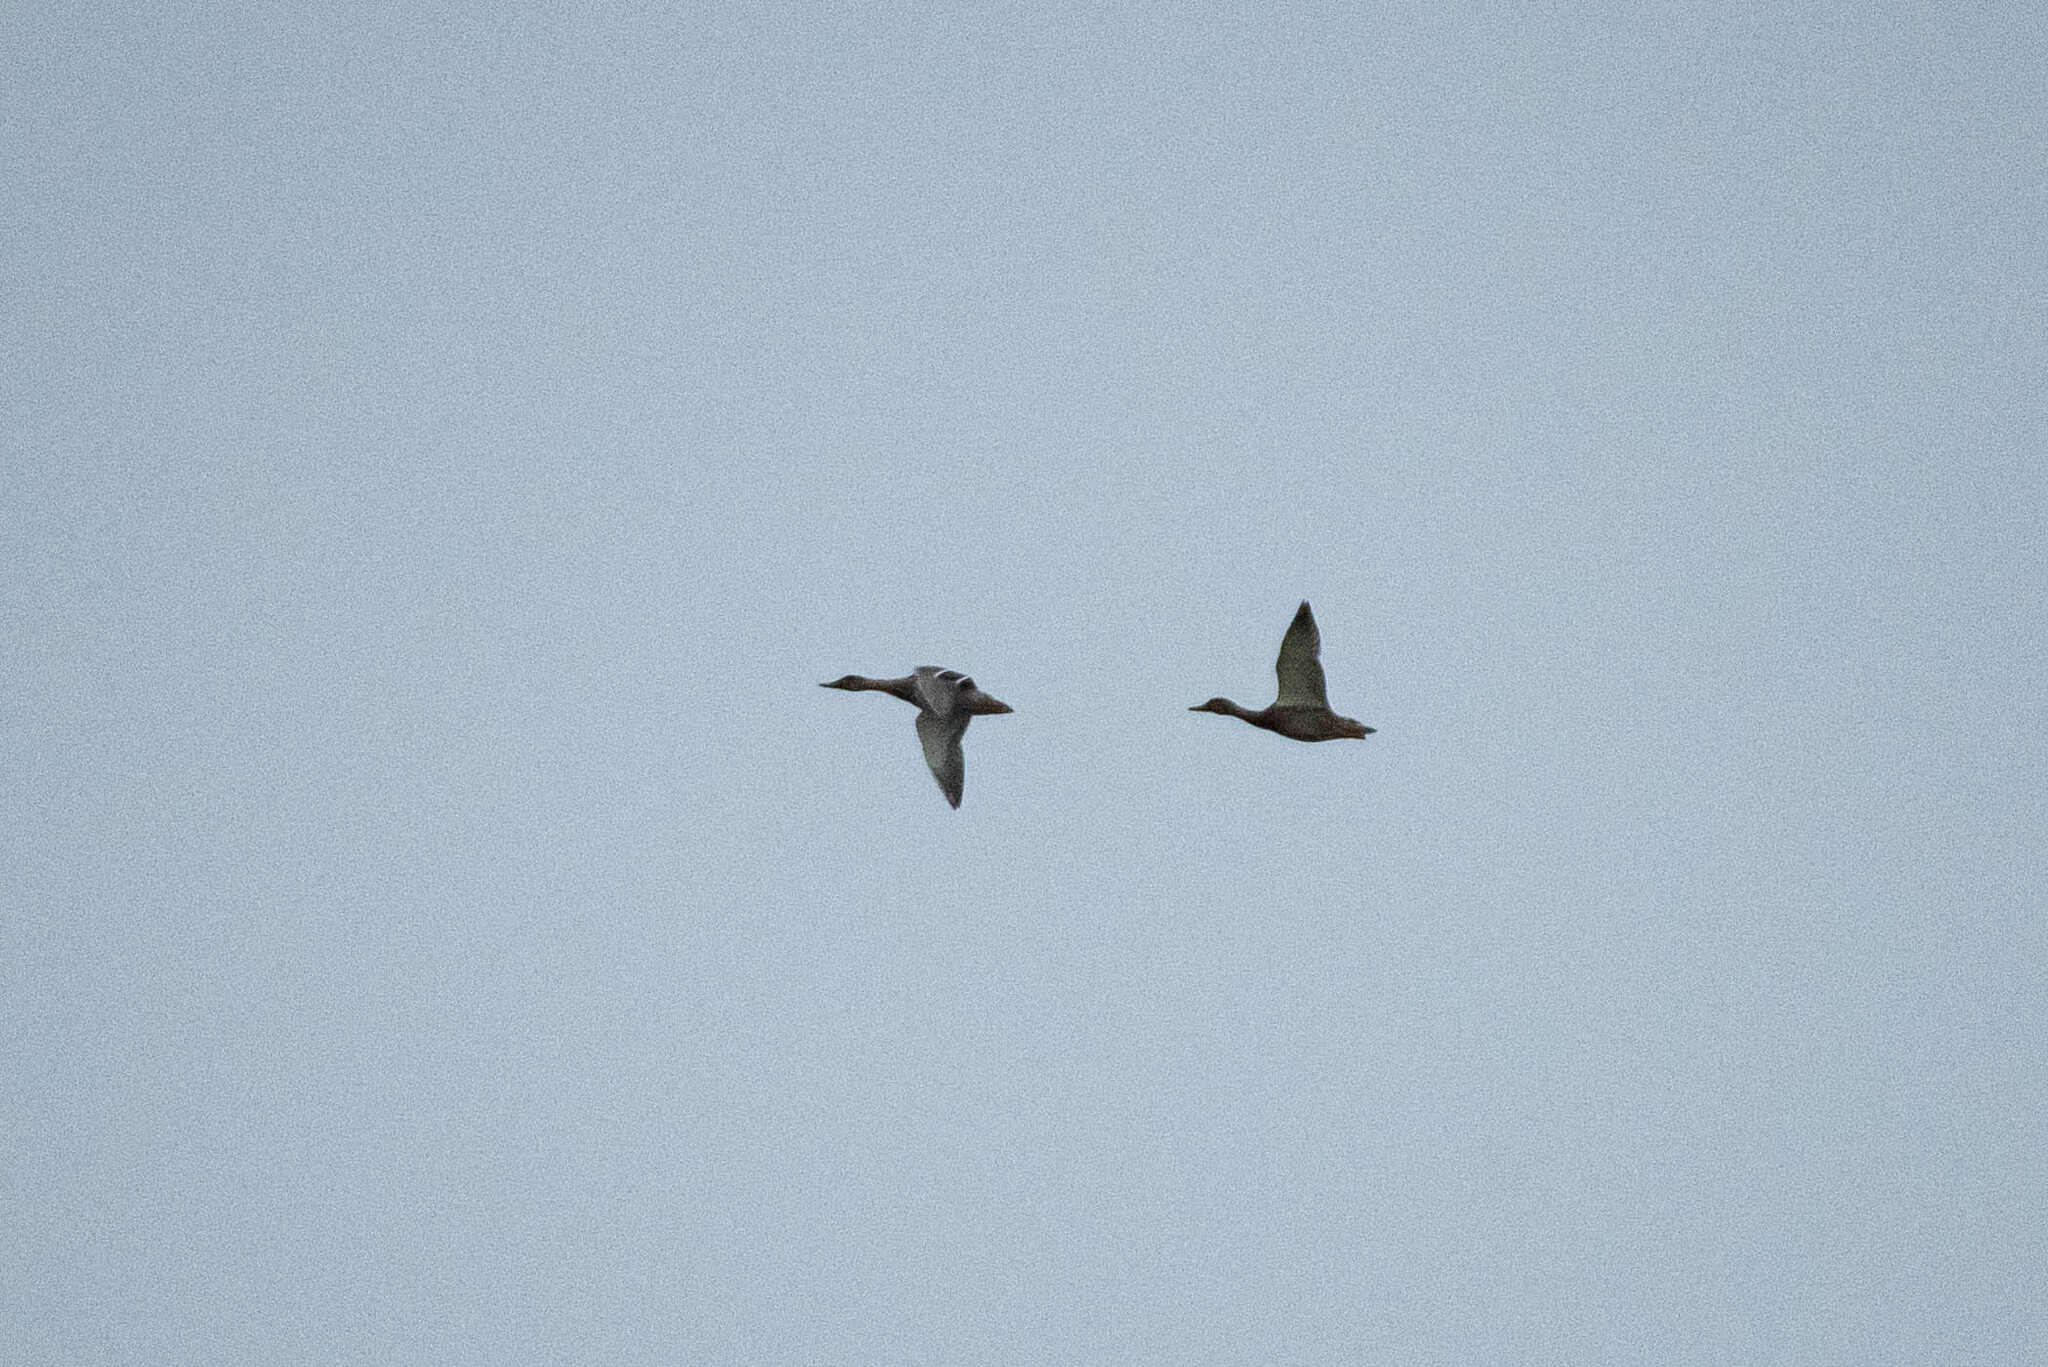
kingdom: Animalia
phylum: Chordata
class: Aves
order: Anseriformes
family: Anatidae
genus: Anas
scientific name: Anas platyrhynchos
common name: Mallard
